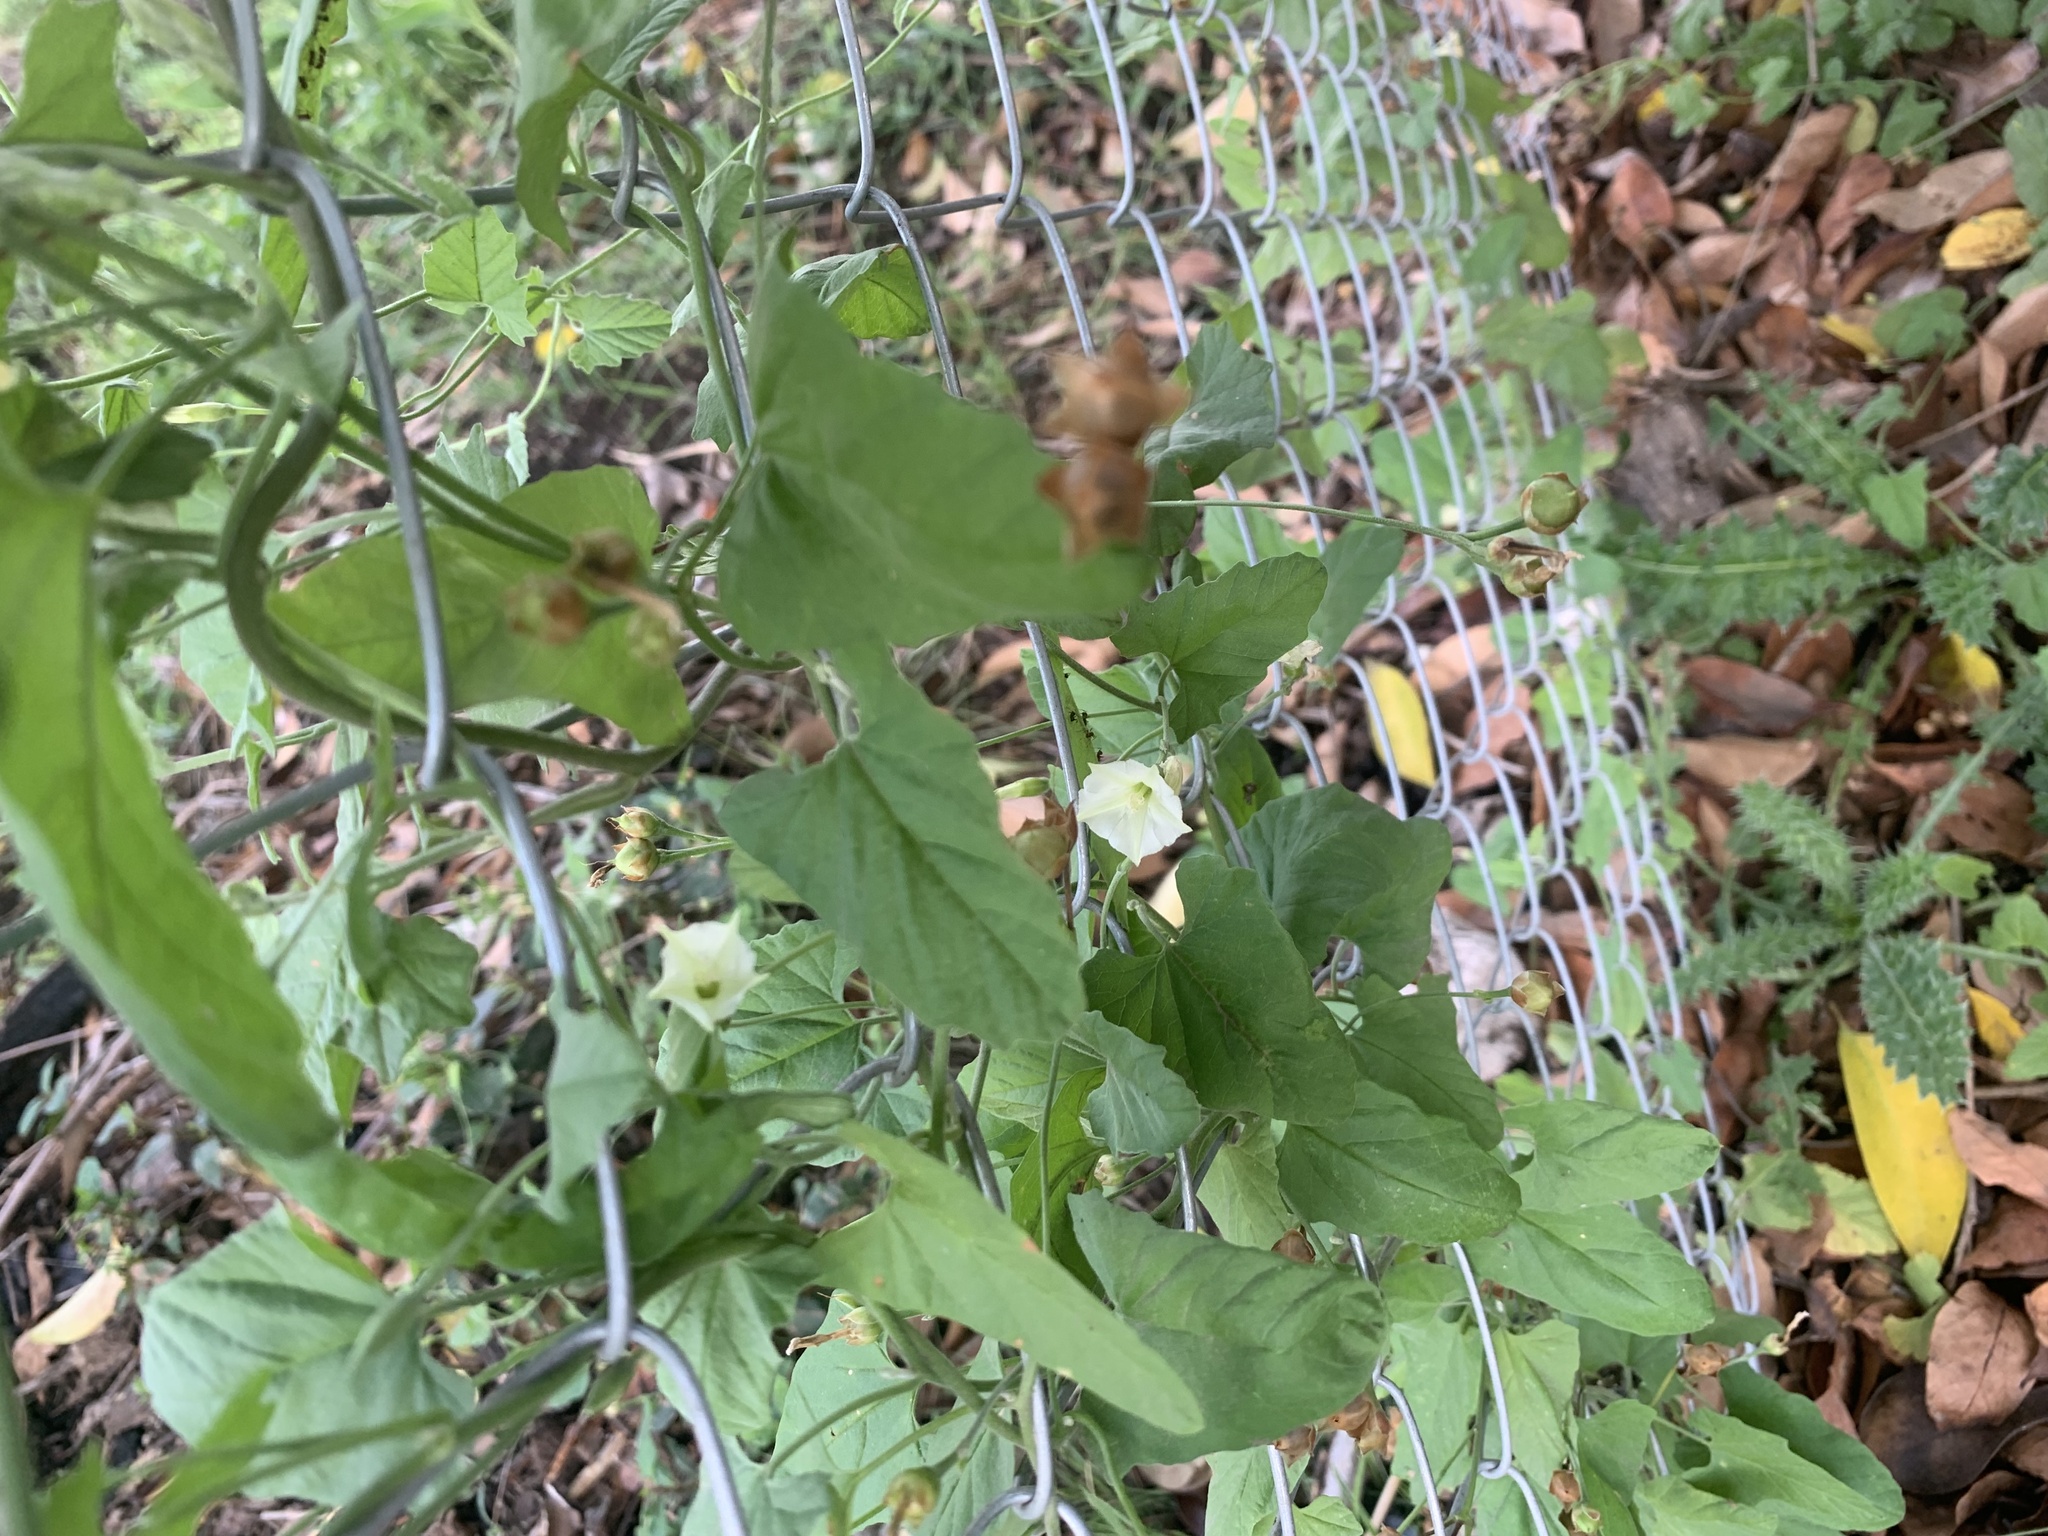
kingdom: Plantae
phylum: Tracheophyta
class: Magnoliopsida
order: Solanales
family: Convolvulaceae
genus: Convolvulus
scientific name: Convolvulus crenatifolius
